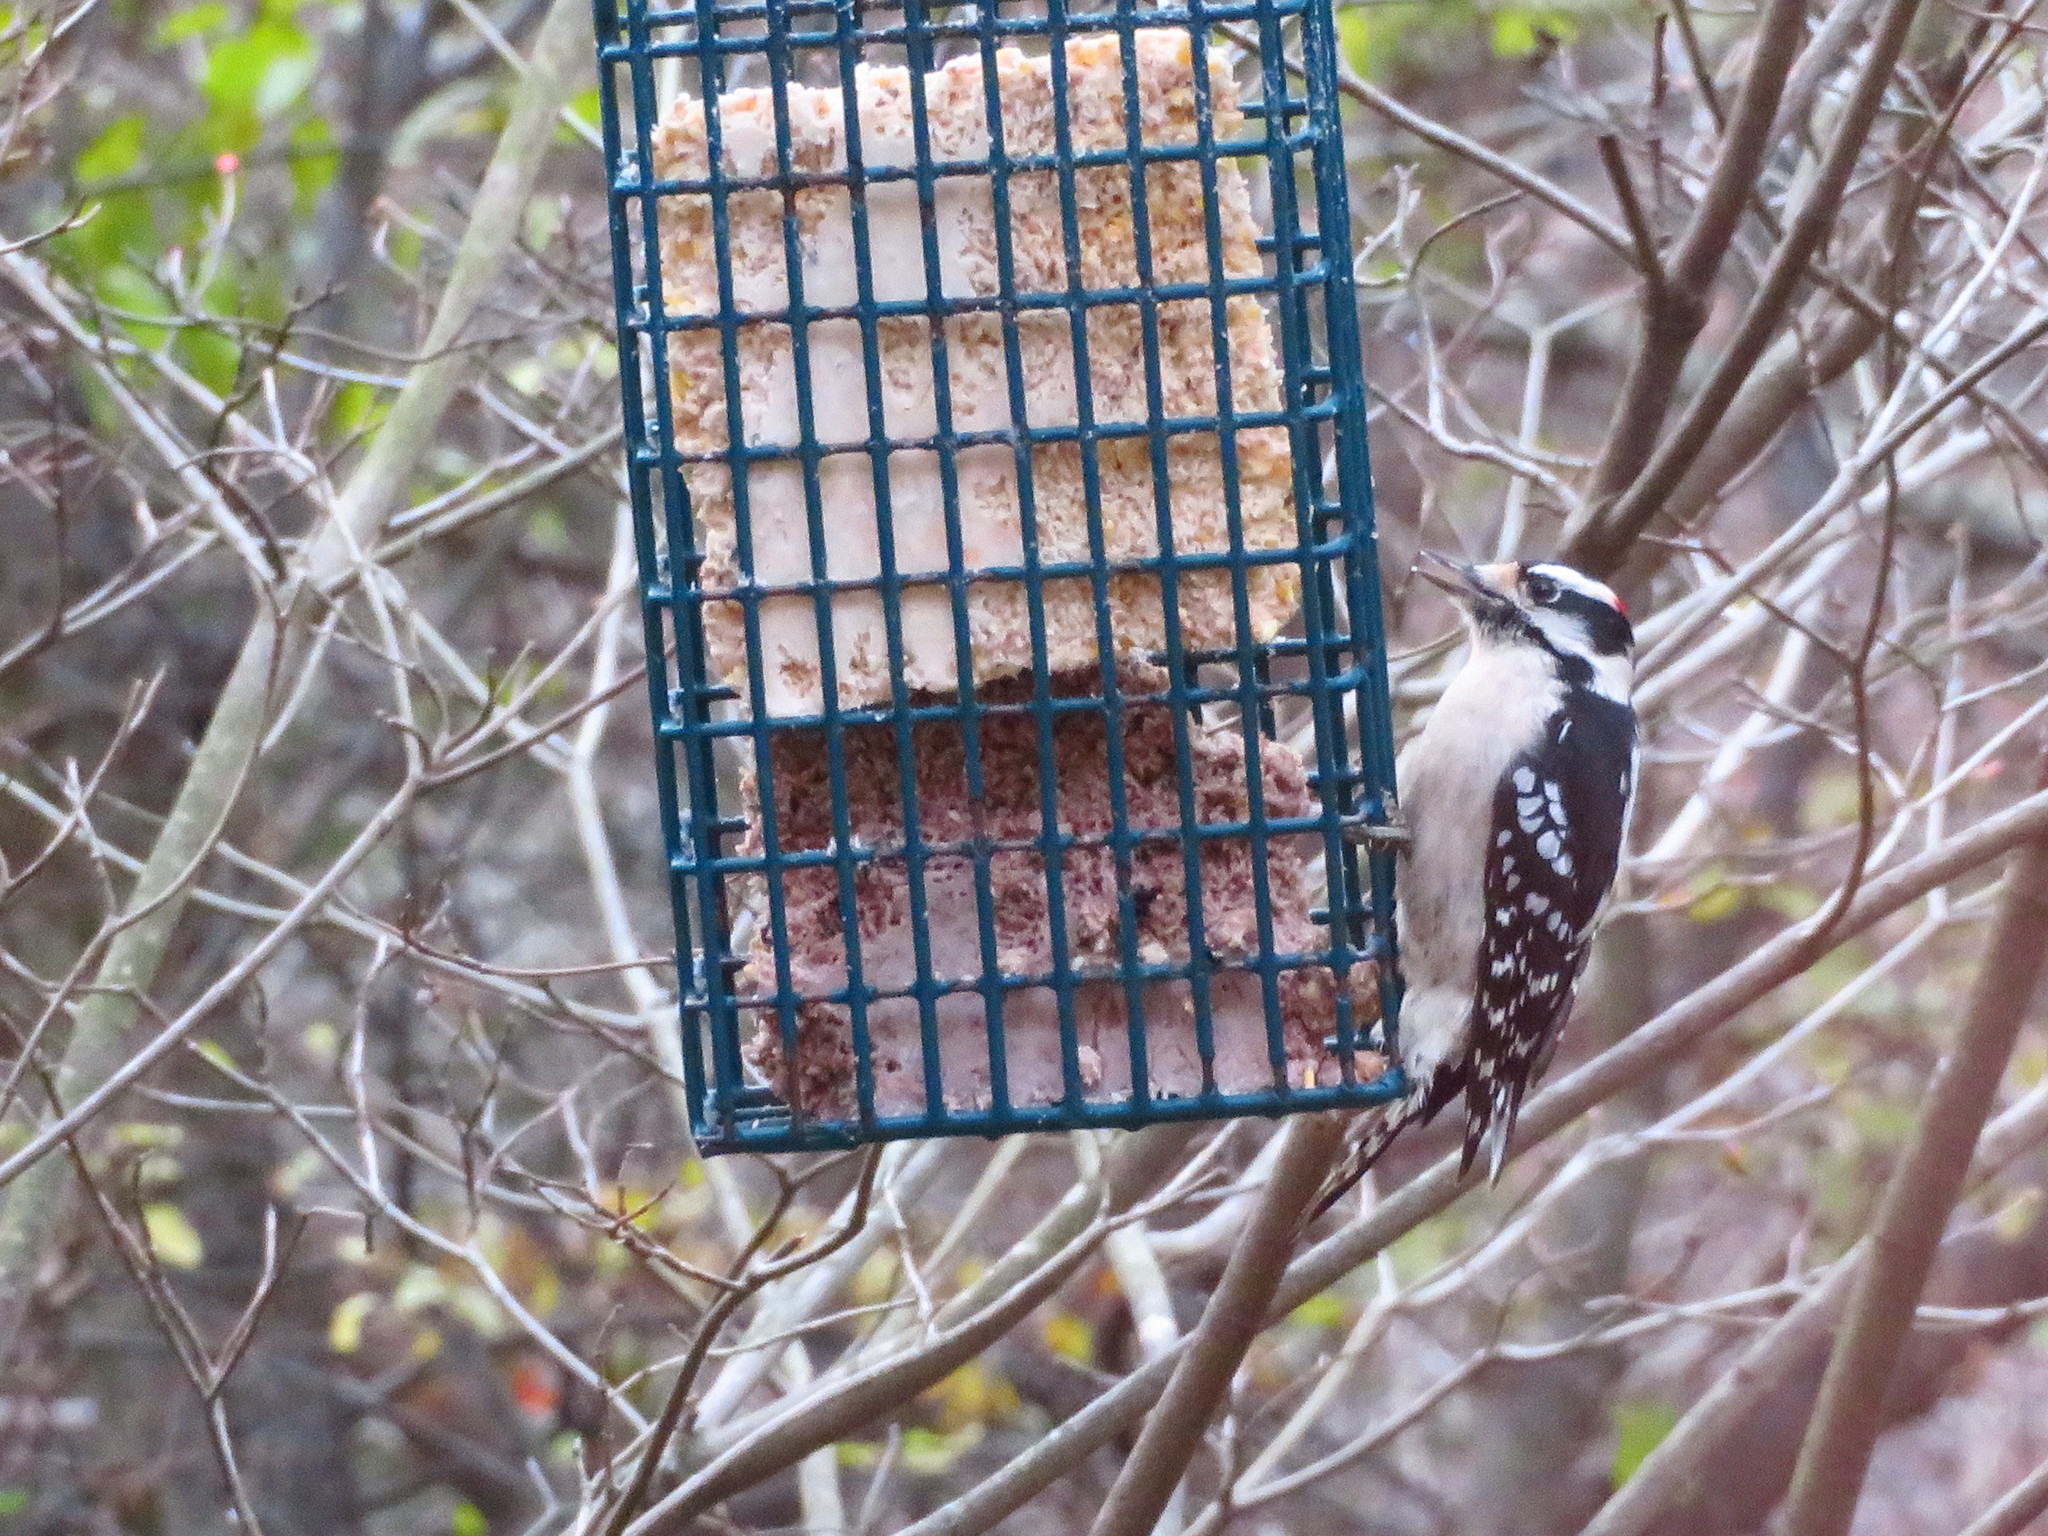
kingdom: Animalia
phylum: Chordata
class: Aves
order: Piciformes
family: Picidae
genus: Dryobates
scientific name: Dryobates pubescens
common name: Downy woodpecker
